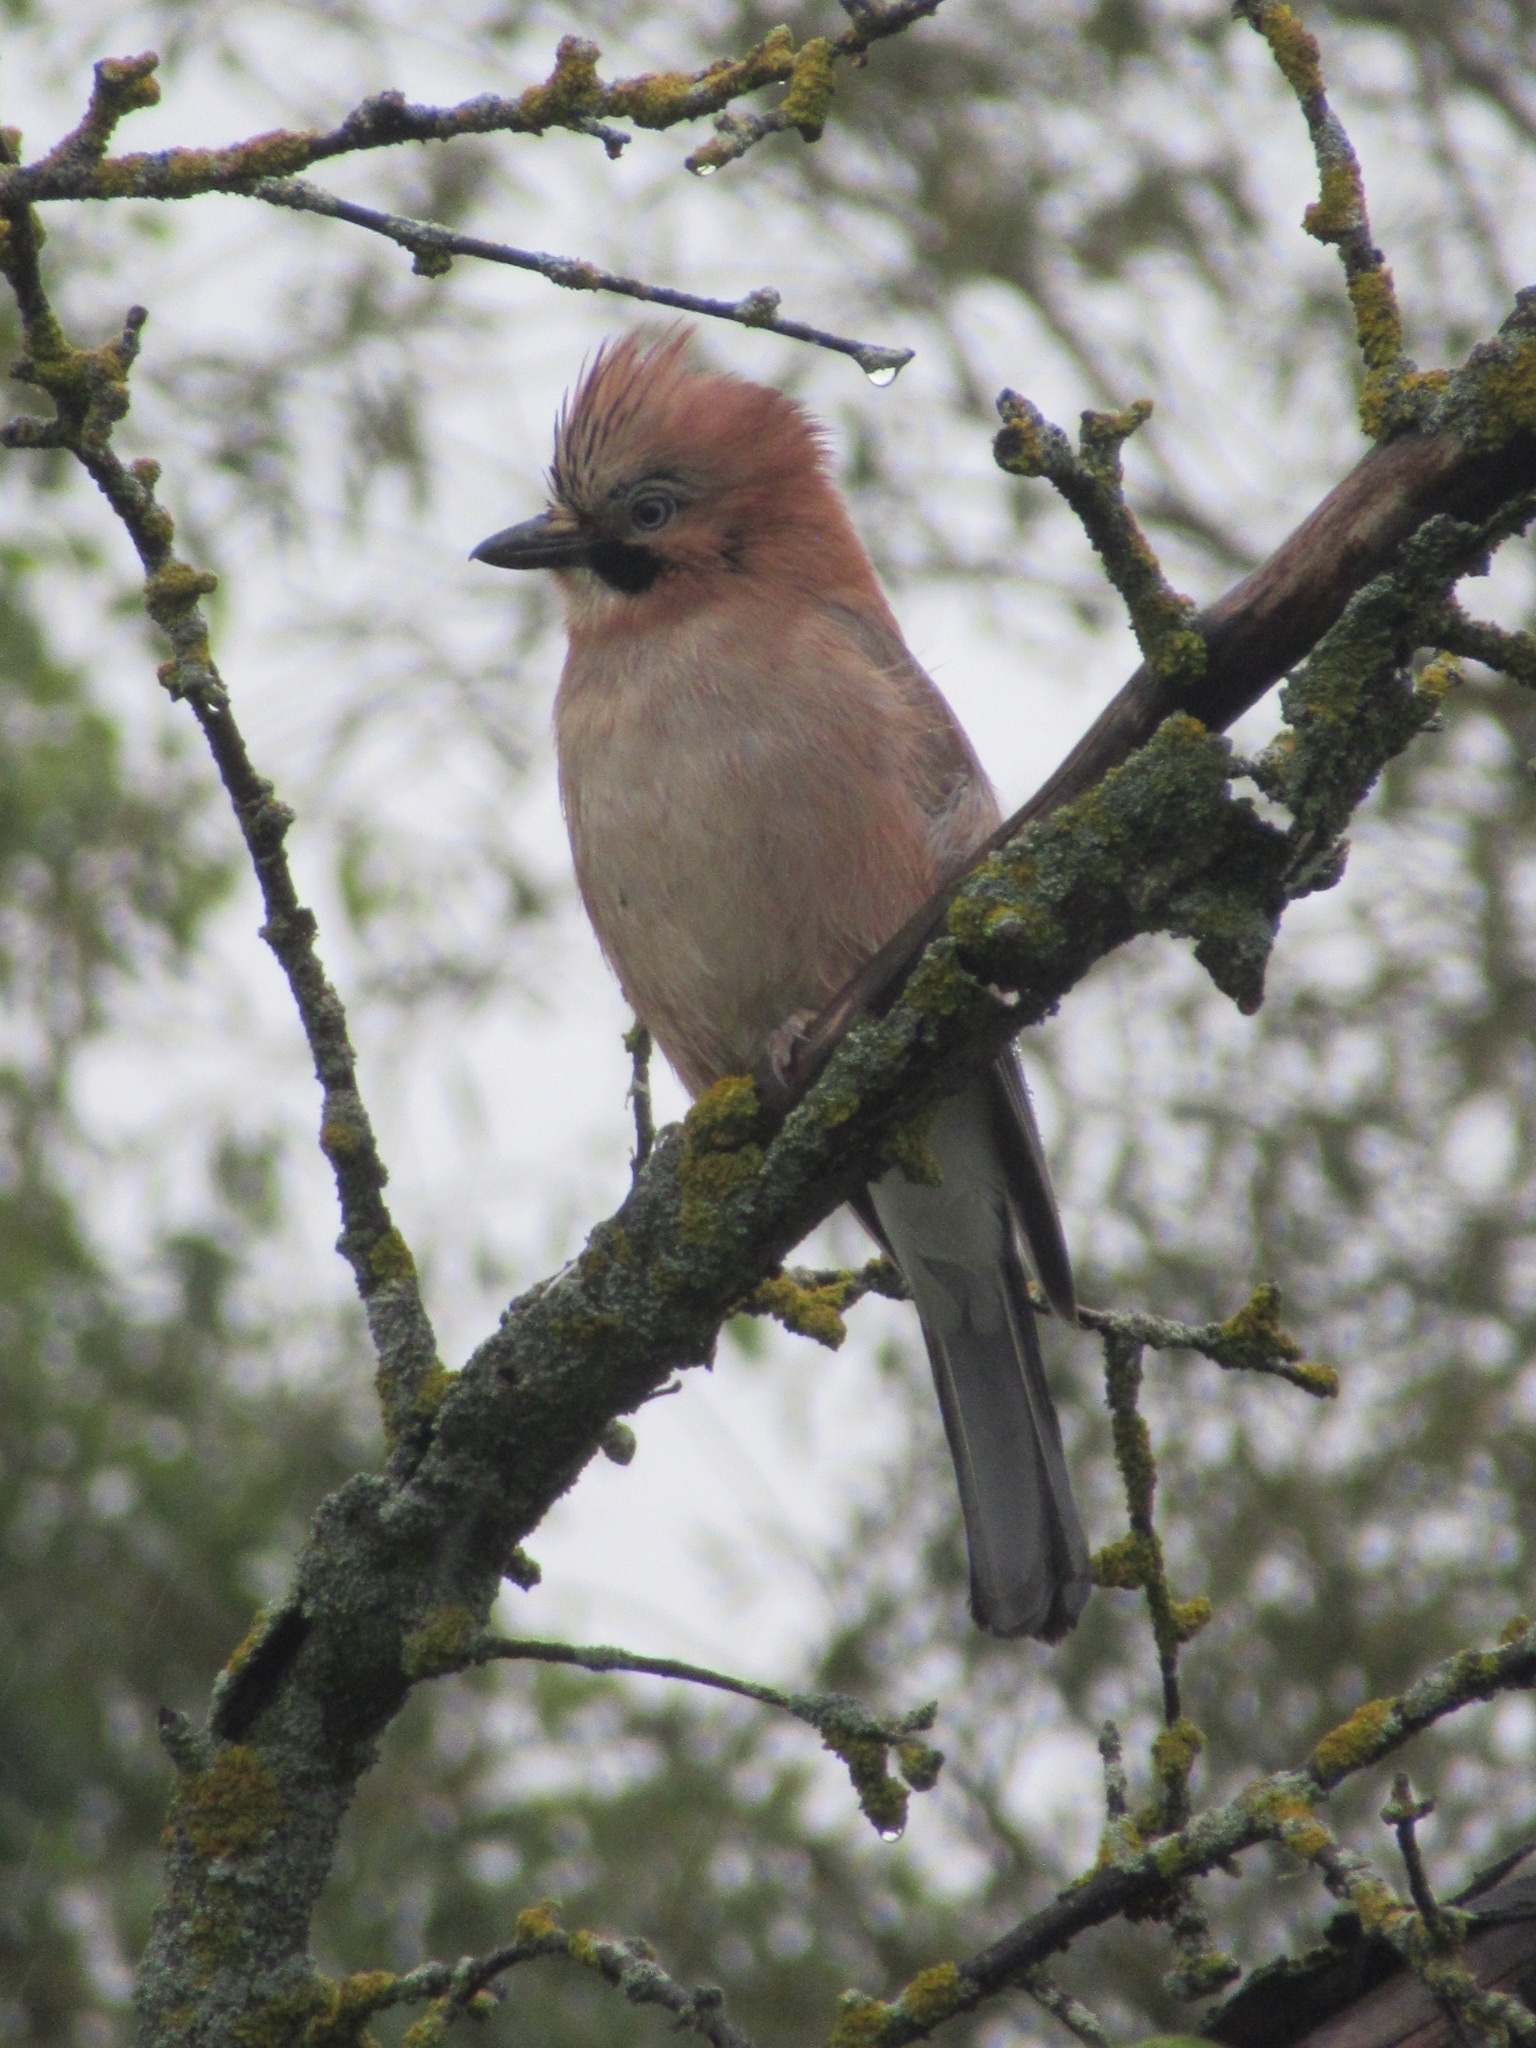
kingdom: Animalia
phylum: Chordata
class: Aves
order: Passeriformes
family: Corvidae
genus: Garrulus
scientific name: Garrulus glandarius
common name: Eurasian jay
